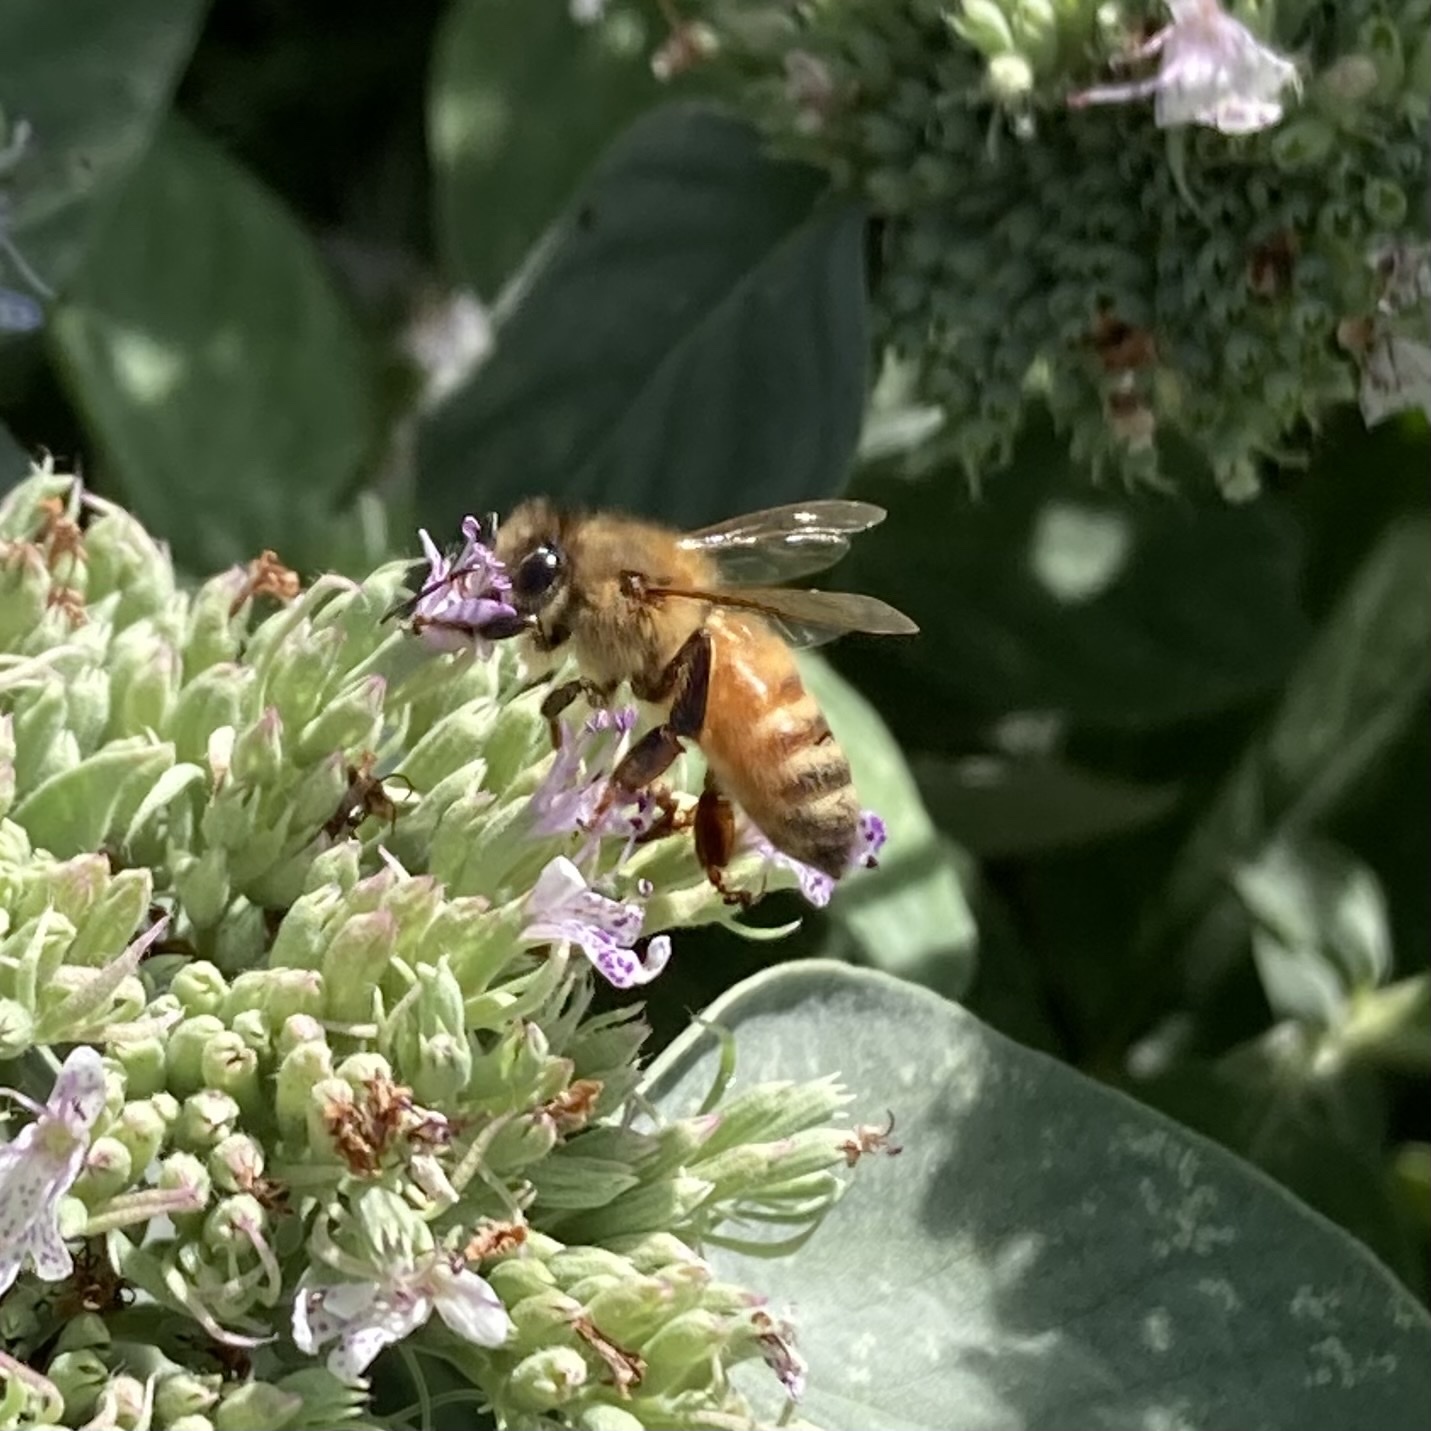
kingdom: Animalia
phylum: Arthropoda
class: Insecta
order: Hymenoptera
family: Apidae
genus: Apis
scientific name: Apis mellifera
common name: Honey bee
